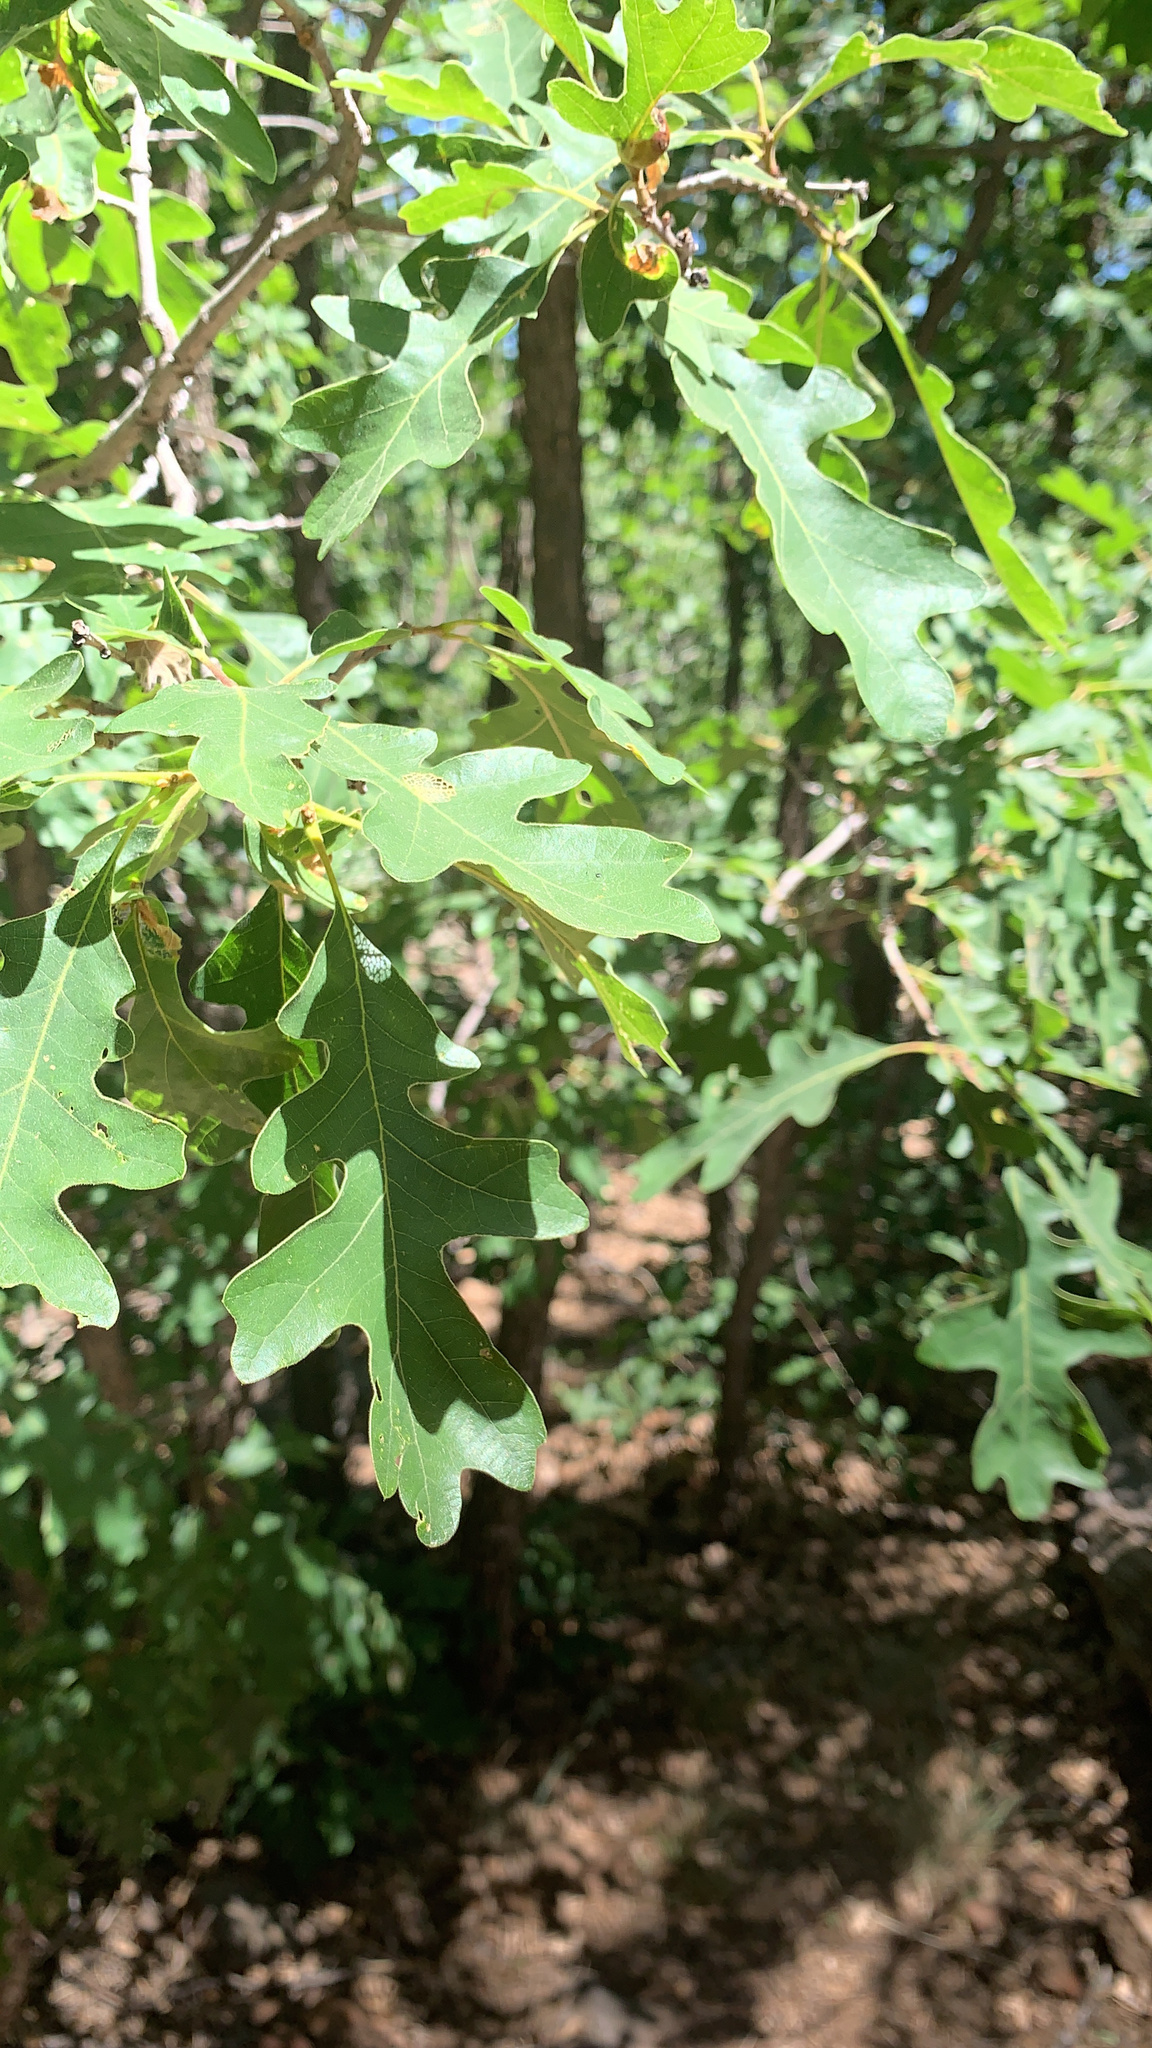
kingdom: Plantae
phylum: Tracheophyta
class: Magnoliopsida
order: Fagales
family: Fagaceae
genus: Quercus
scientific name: Quercus gambelii
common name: Gambel oak
